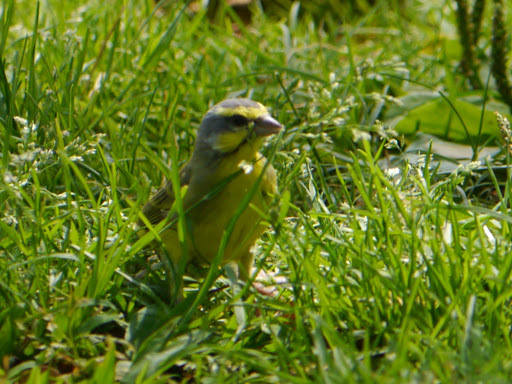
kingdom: Animalia
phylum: Chordata
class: Aves
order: Passeriformes
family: Fringillidae
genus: Crithagra
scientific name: Crithagra mozambica
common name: Yellow-fronted canary
